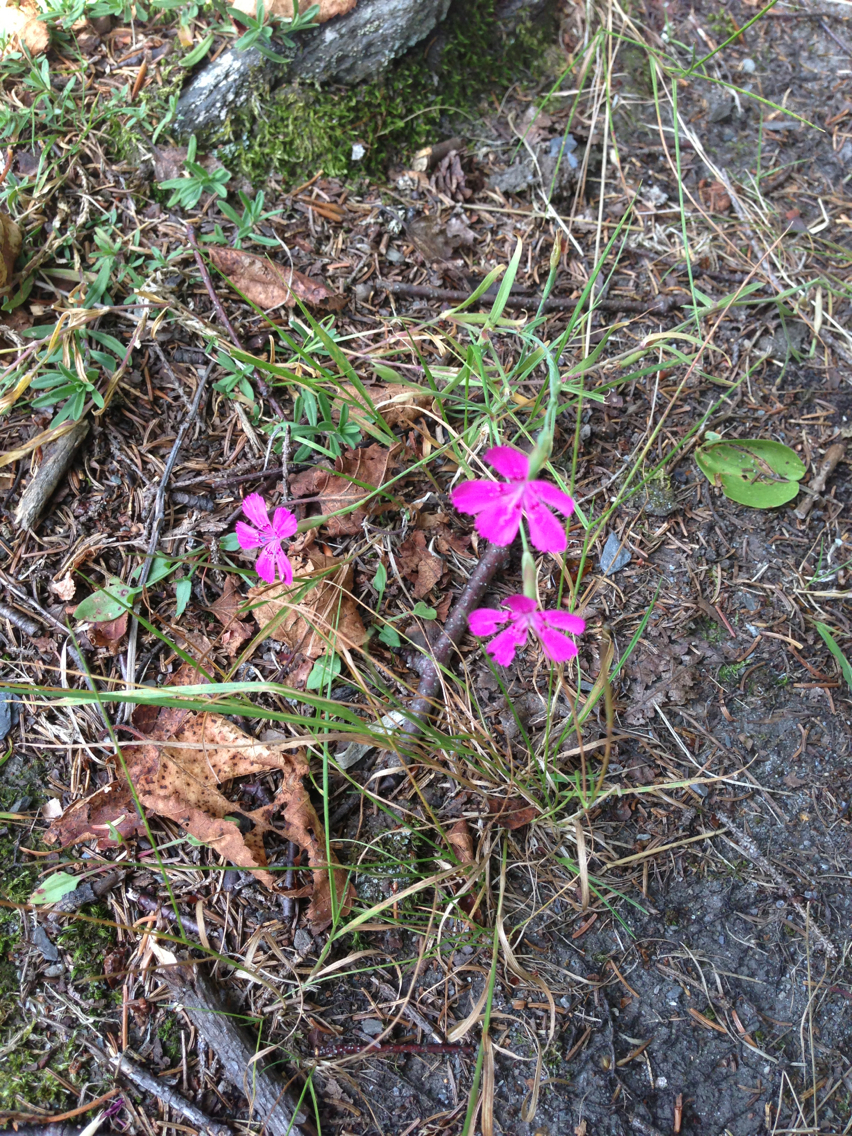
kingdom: Plantae
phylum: Tracheophyta
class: Magnoliopsida
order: Caryophyllales
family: Caryophyllaceae
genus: Dianthus
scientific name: Dianthus deltoides
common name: Maiden pink
